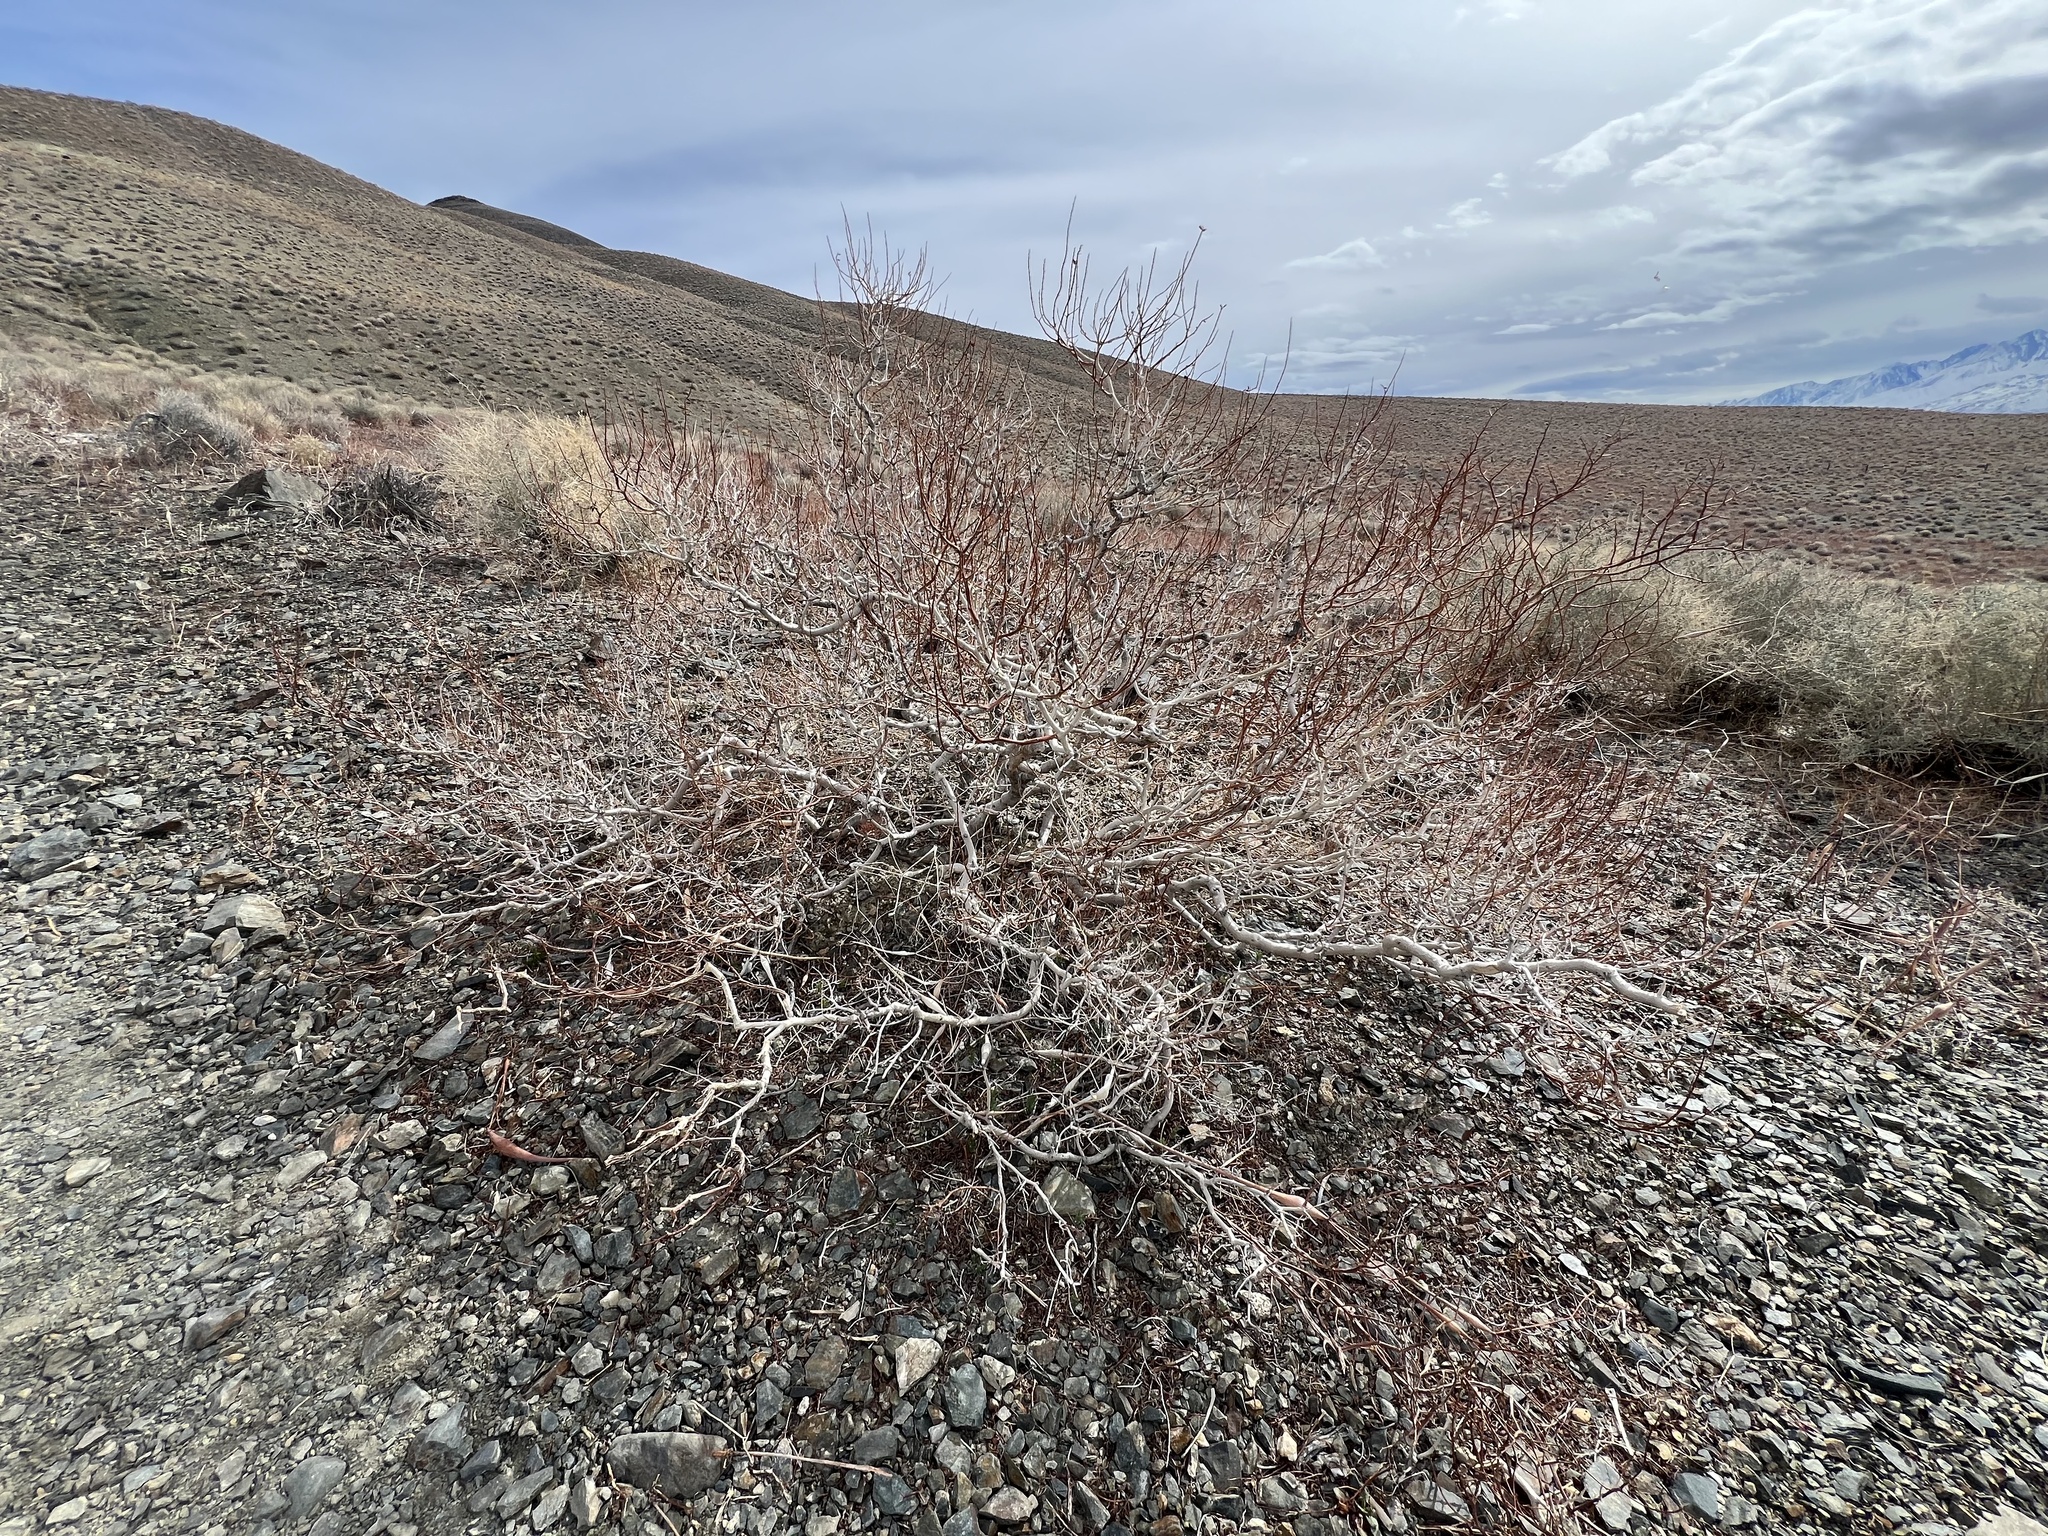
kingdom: Plantae
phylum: Tracheophyta
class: Magnoliopsida
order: Fabales
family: Fabaceae
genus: Psorothamnus
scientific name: Psorothamnus arborescens
